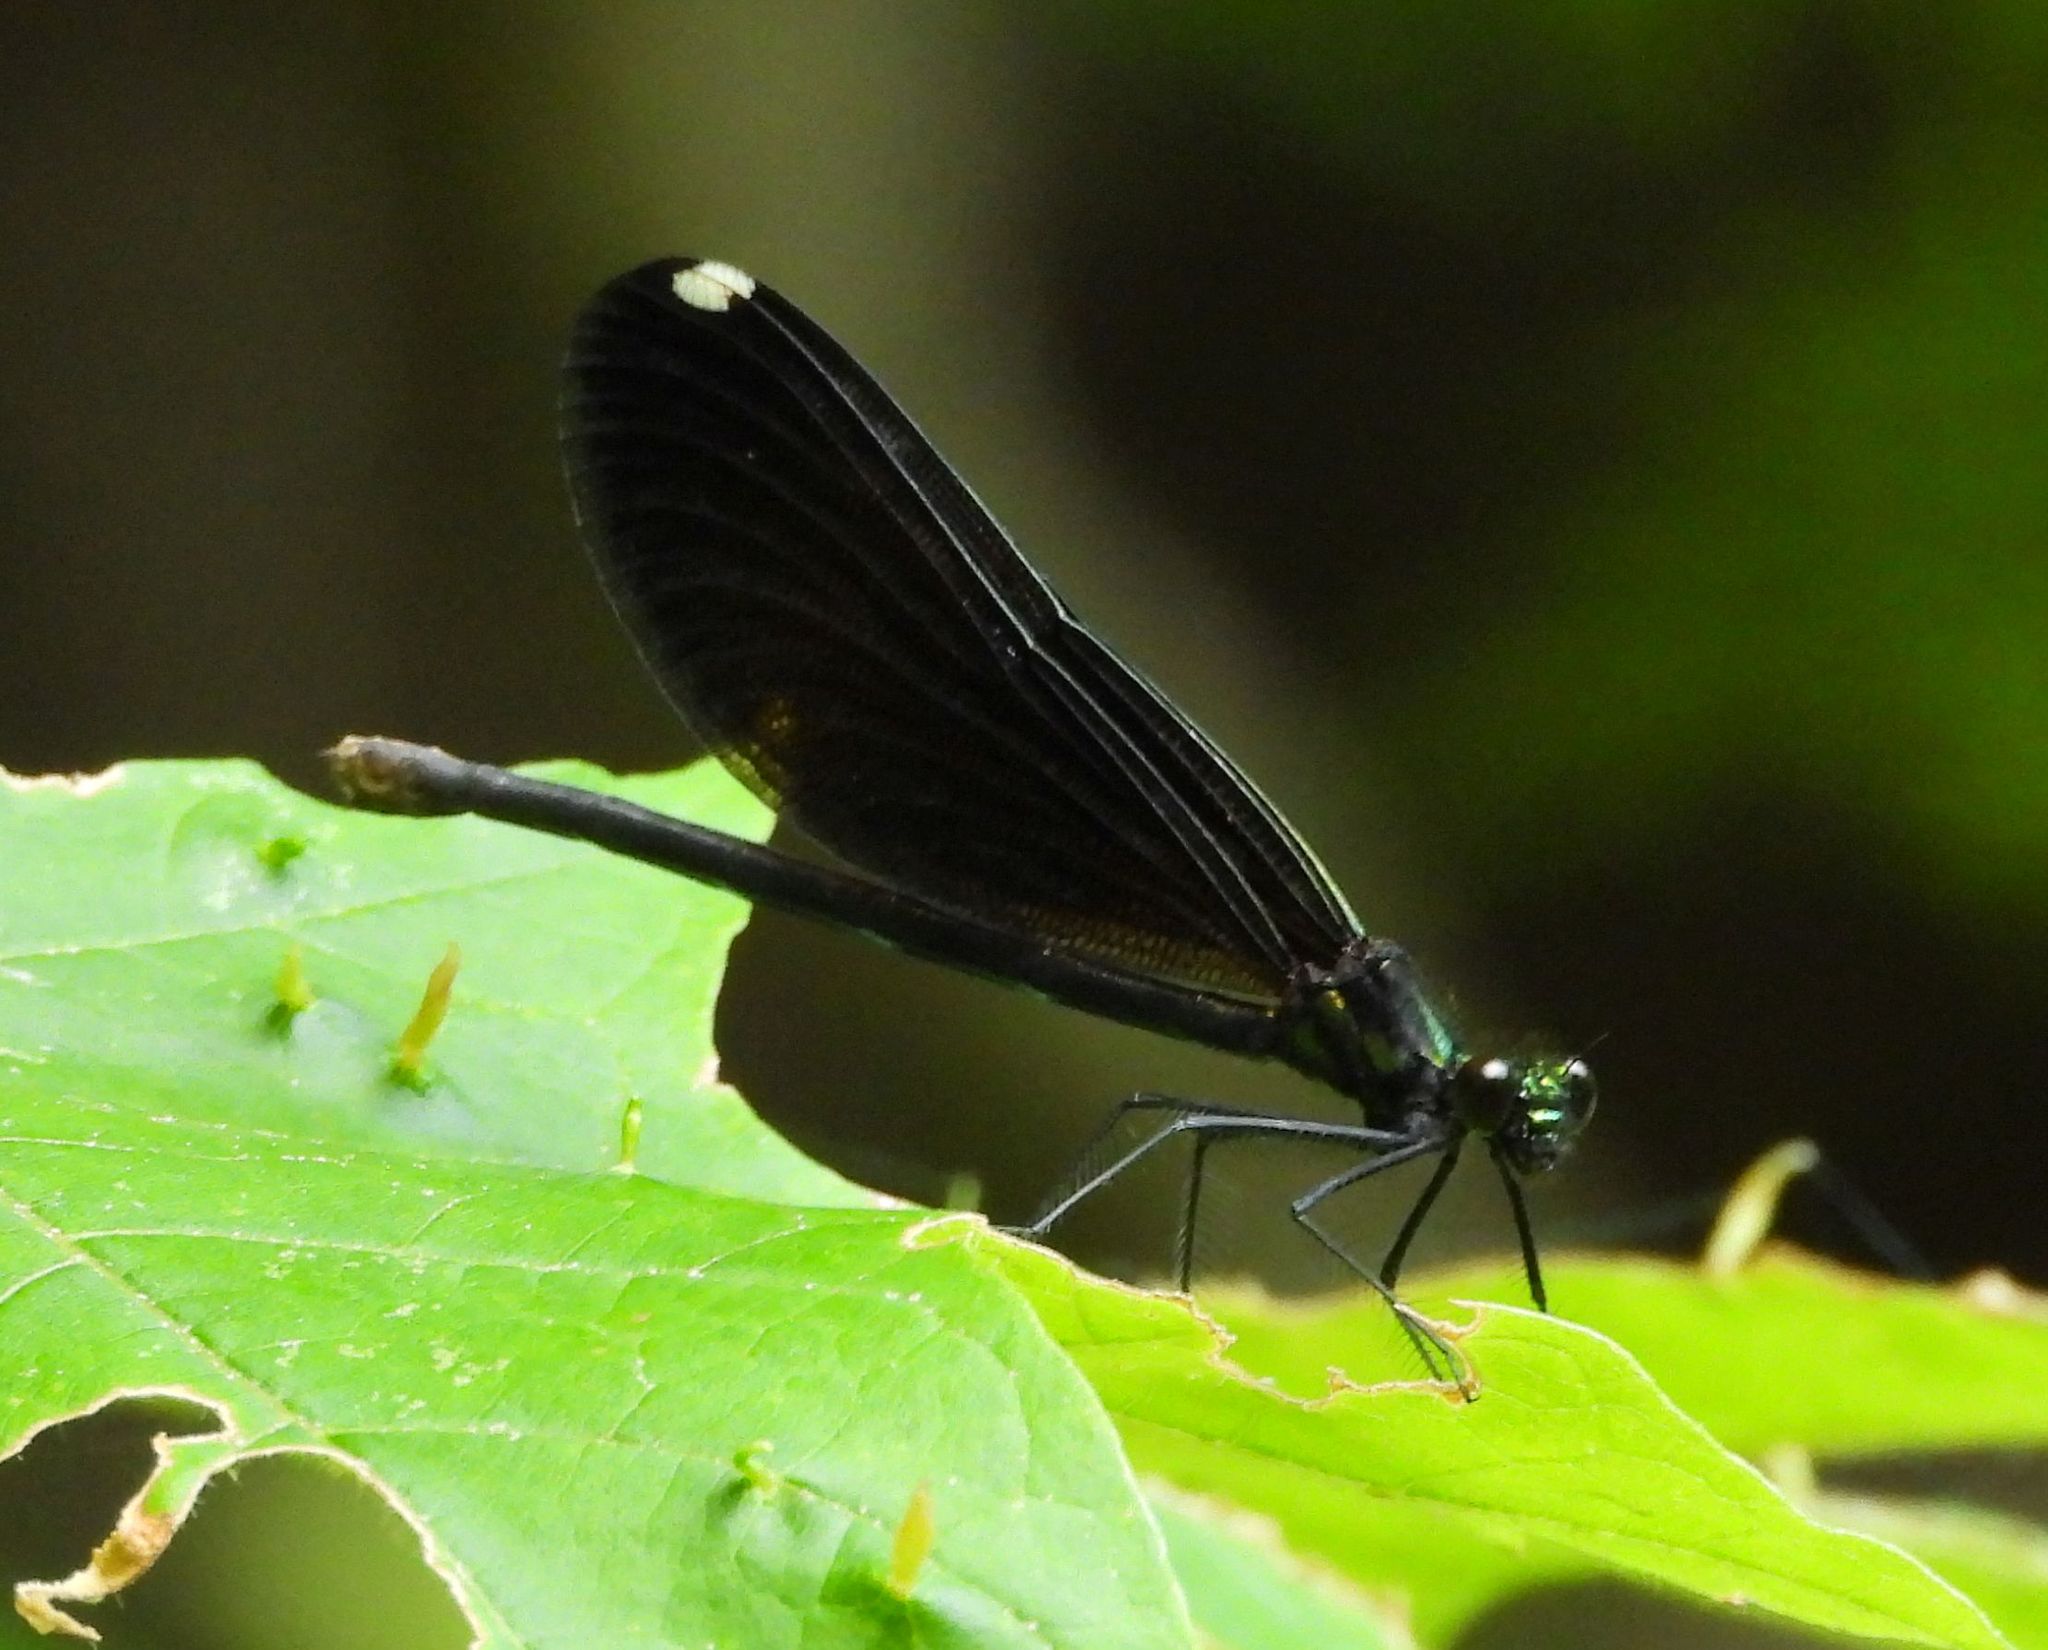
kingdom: Animalia
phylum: Arthropoda
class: Insecta
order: Odonata
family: Calopterygidae
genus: Calopteryx
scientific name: Calopteryx maculata
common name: Ebony jewelwing
